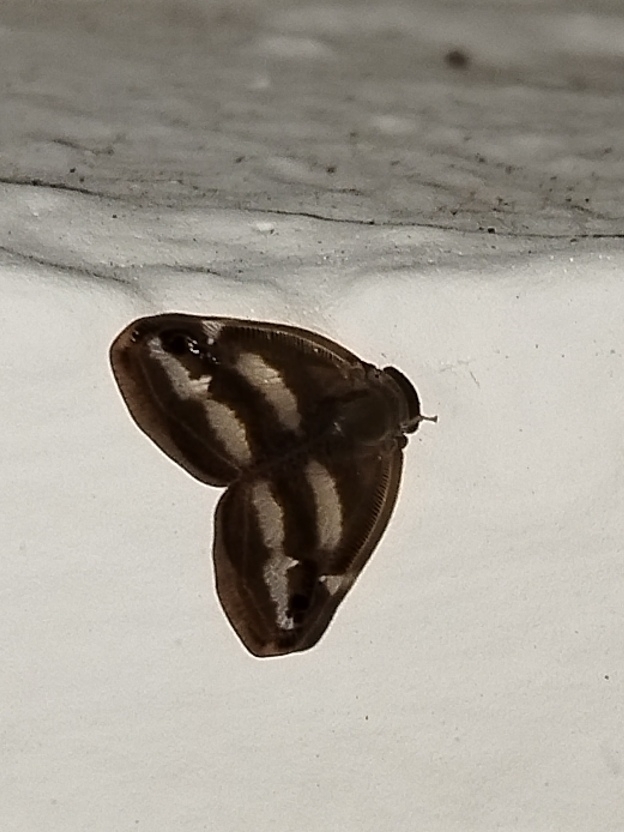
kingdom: Animalia
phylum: Arthropoda
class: Insecta
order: Hemiptera
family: Ricaniidae
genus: Orosanga
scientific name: Orosanga japonica
